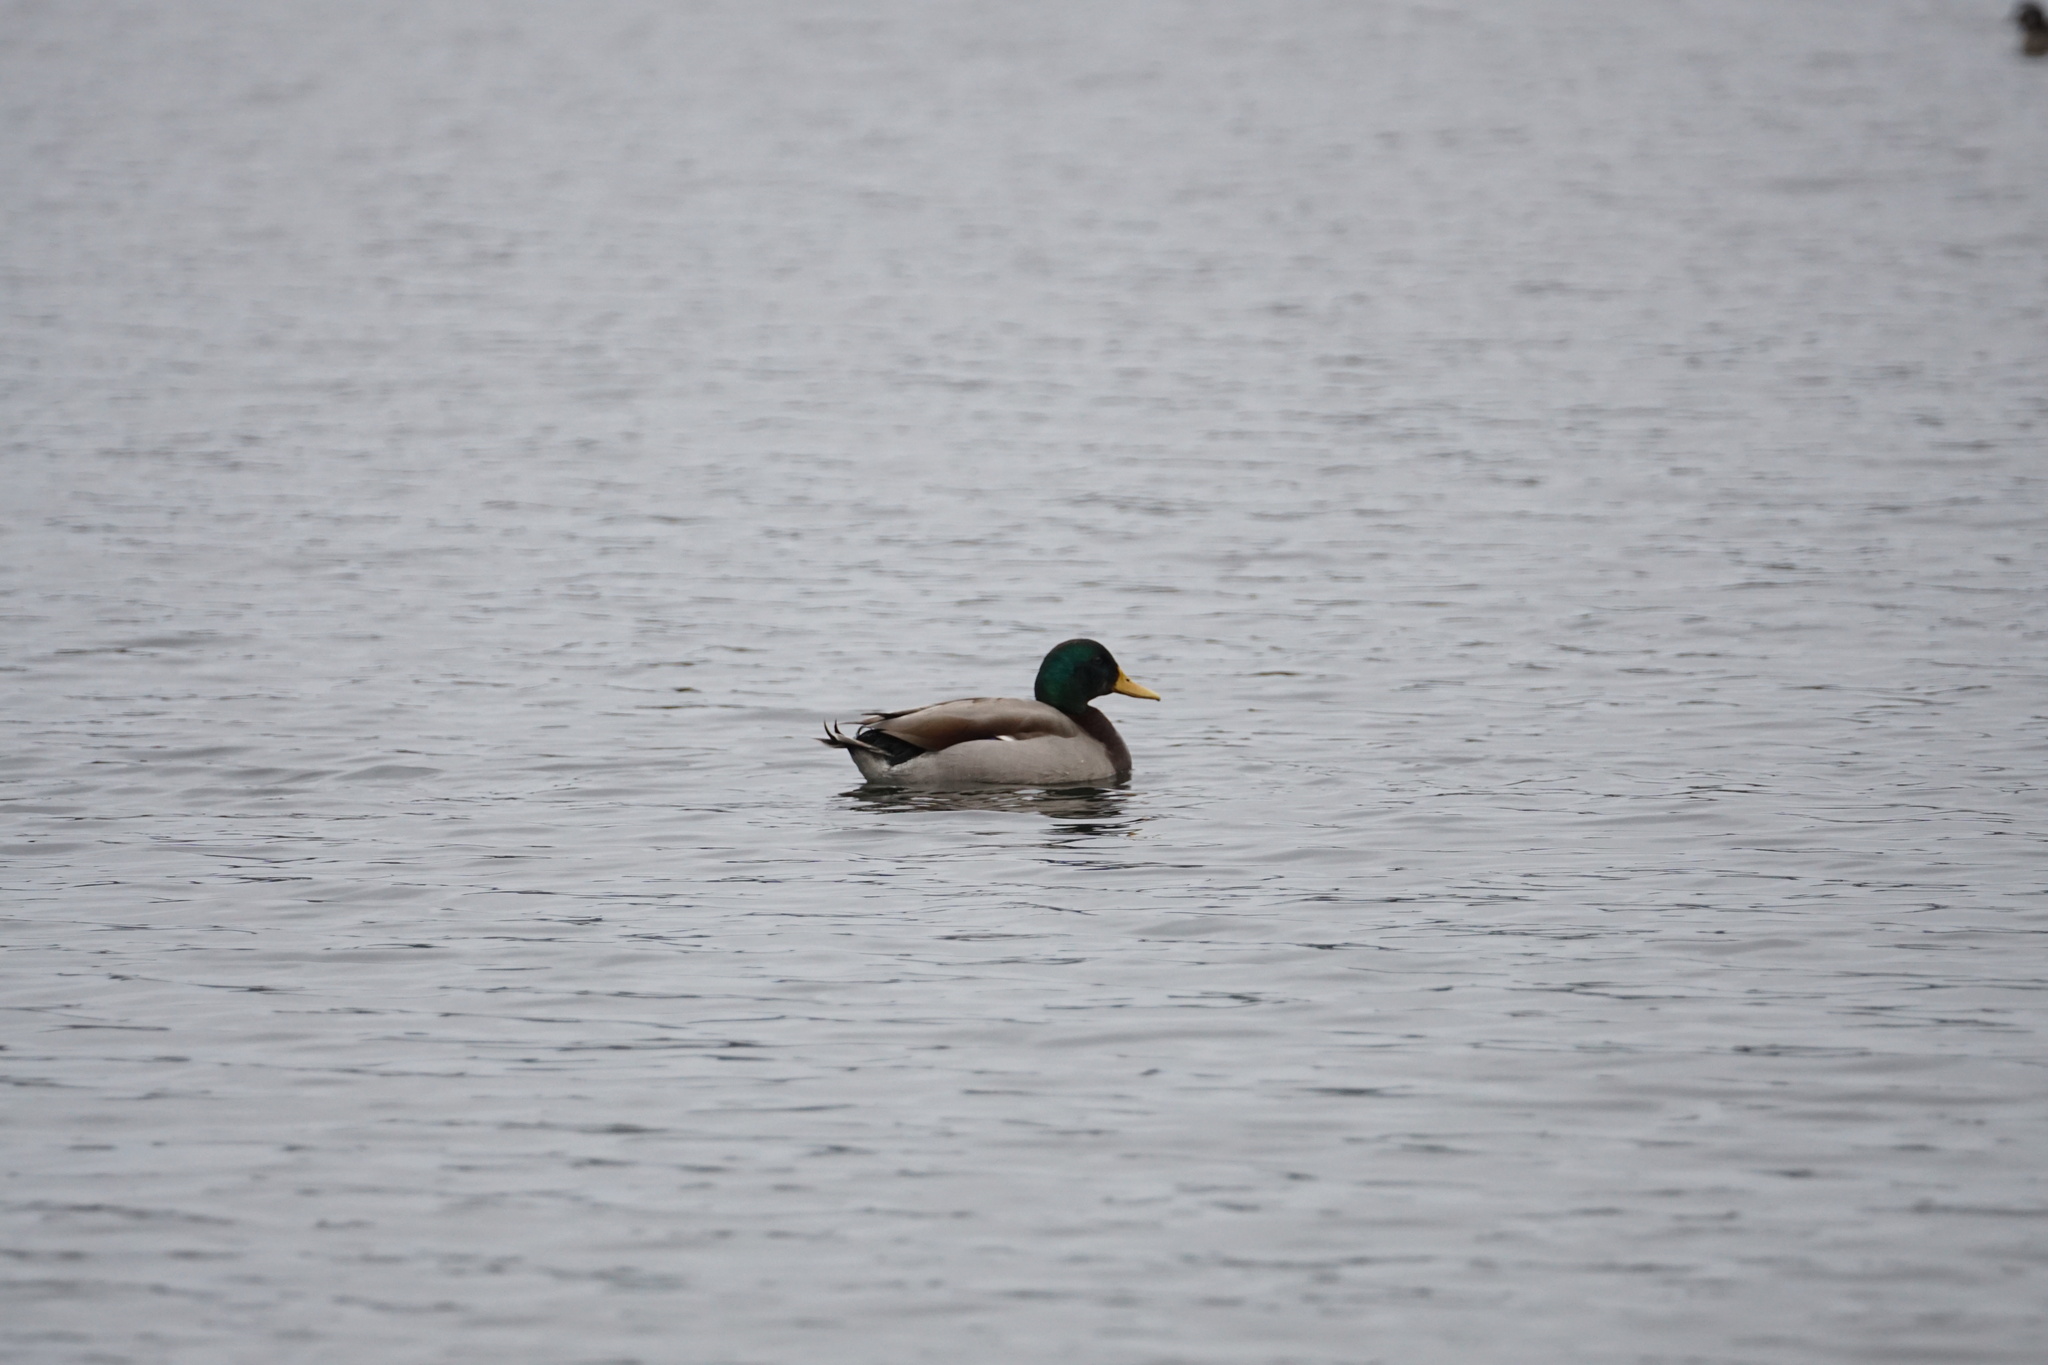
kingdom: Animalia
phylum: Chordata
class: Aves
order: Anseriformes
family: Anatidae
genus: Anas
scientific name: Anas platyrhynchos
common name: Mallard
